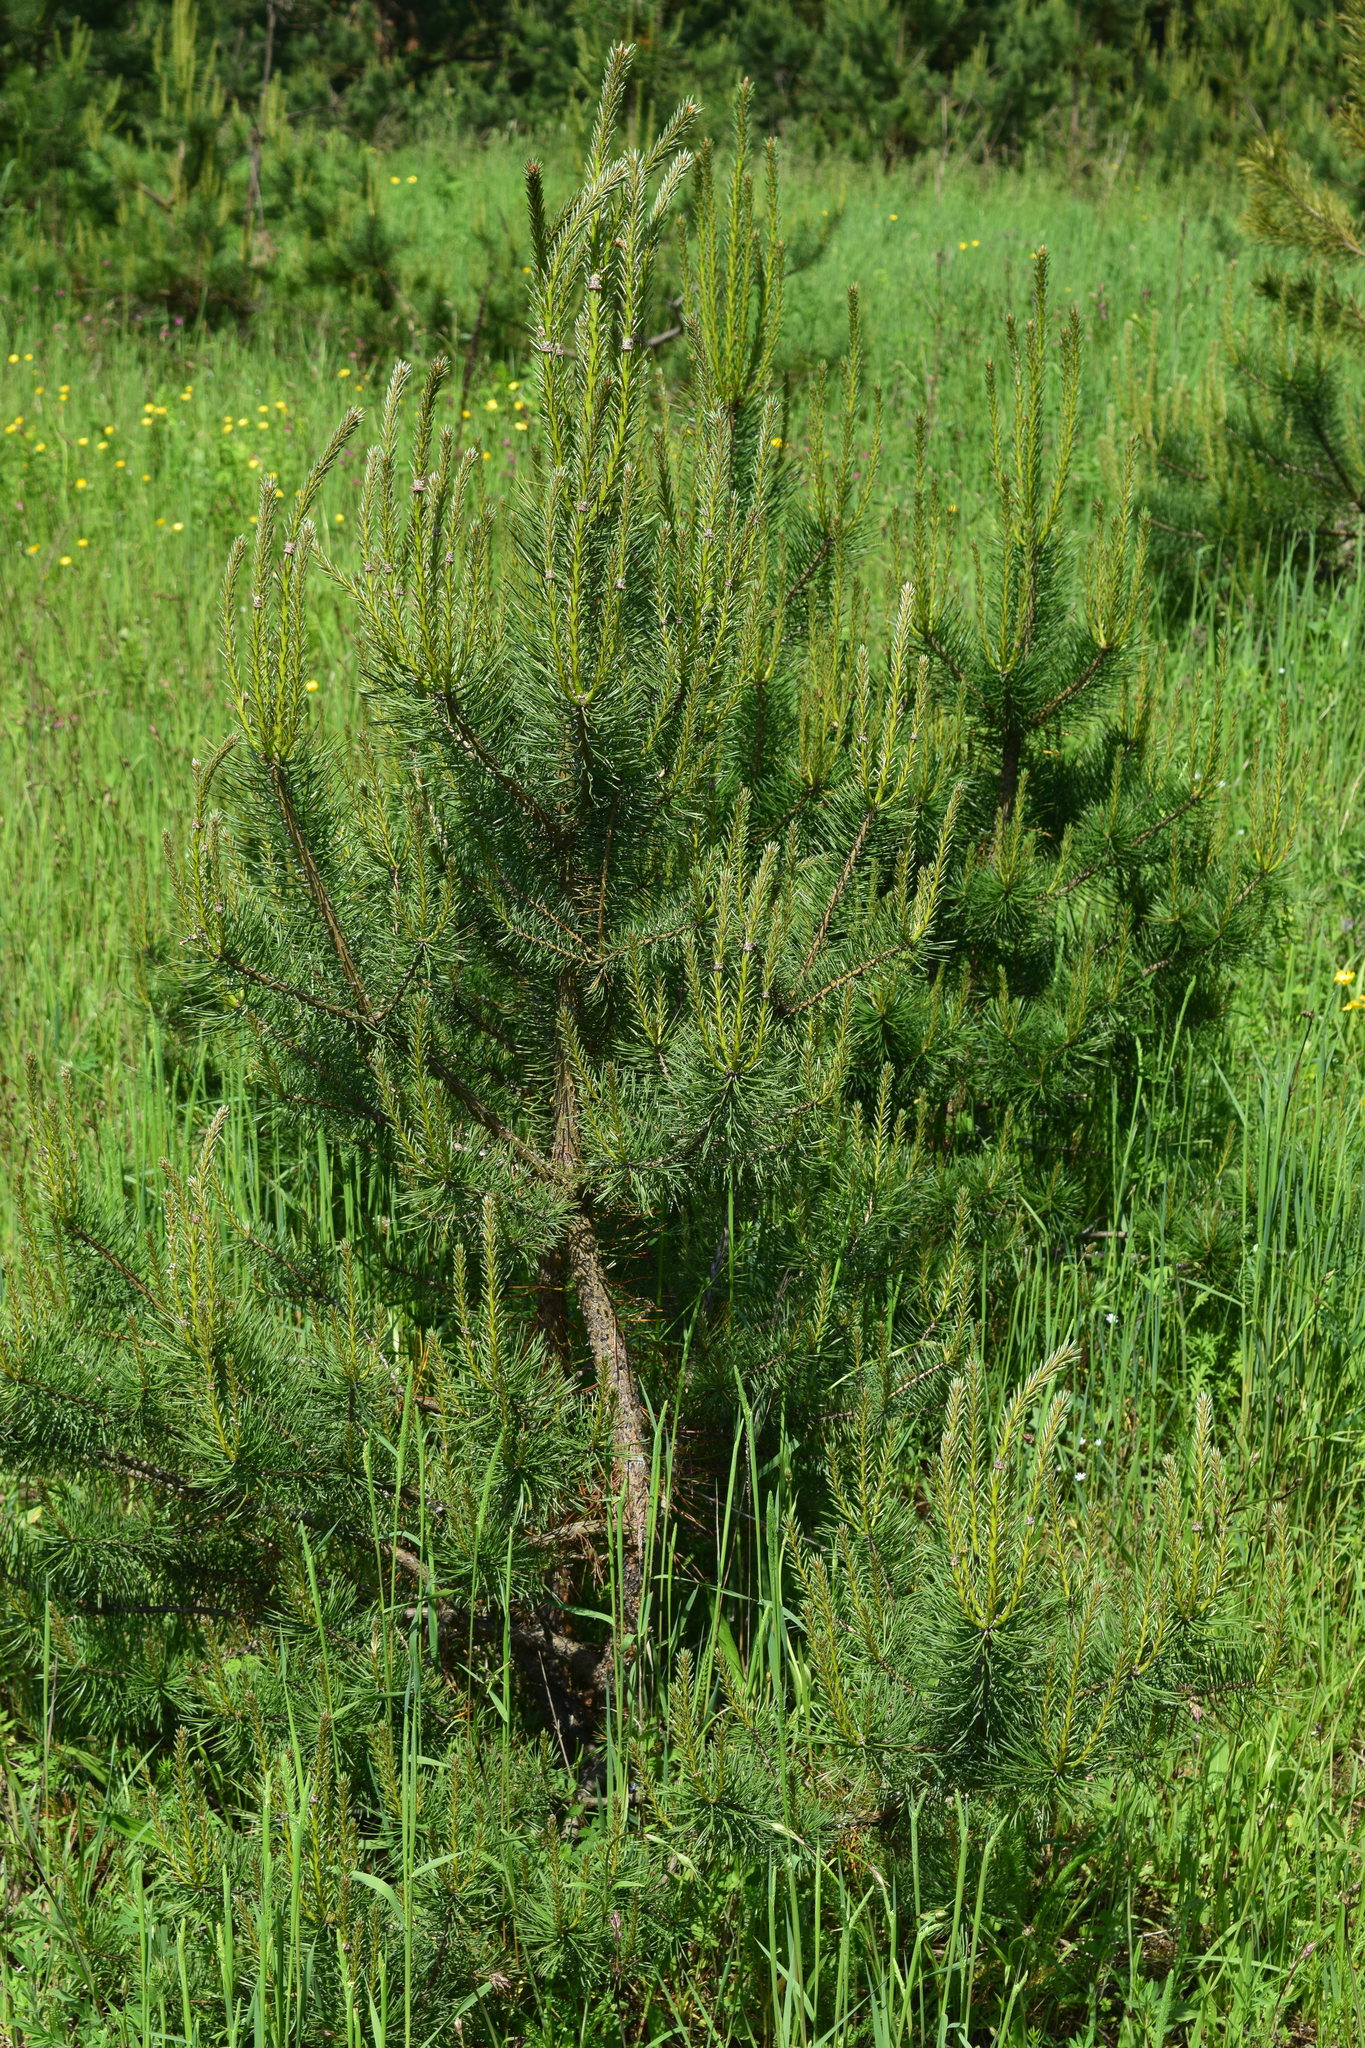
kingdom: Plantae
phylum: Tracheophyta
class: Pinopsida
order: Pinales
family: Pinaceae
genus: Pinus
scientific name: Pinus sylvestris
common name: Scots pine
